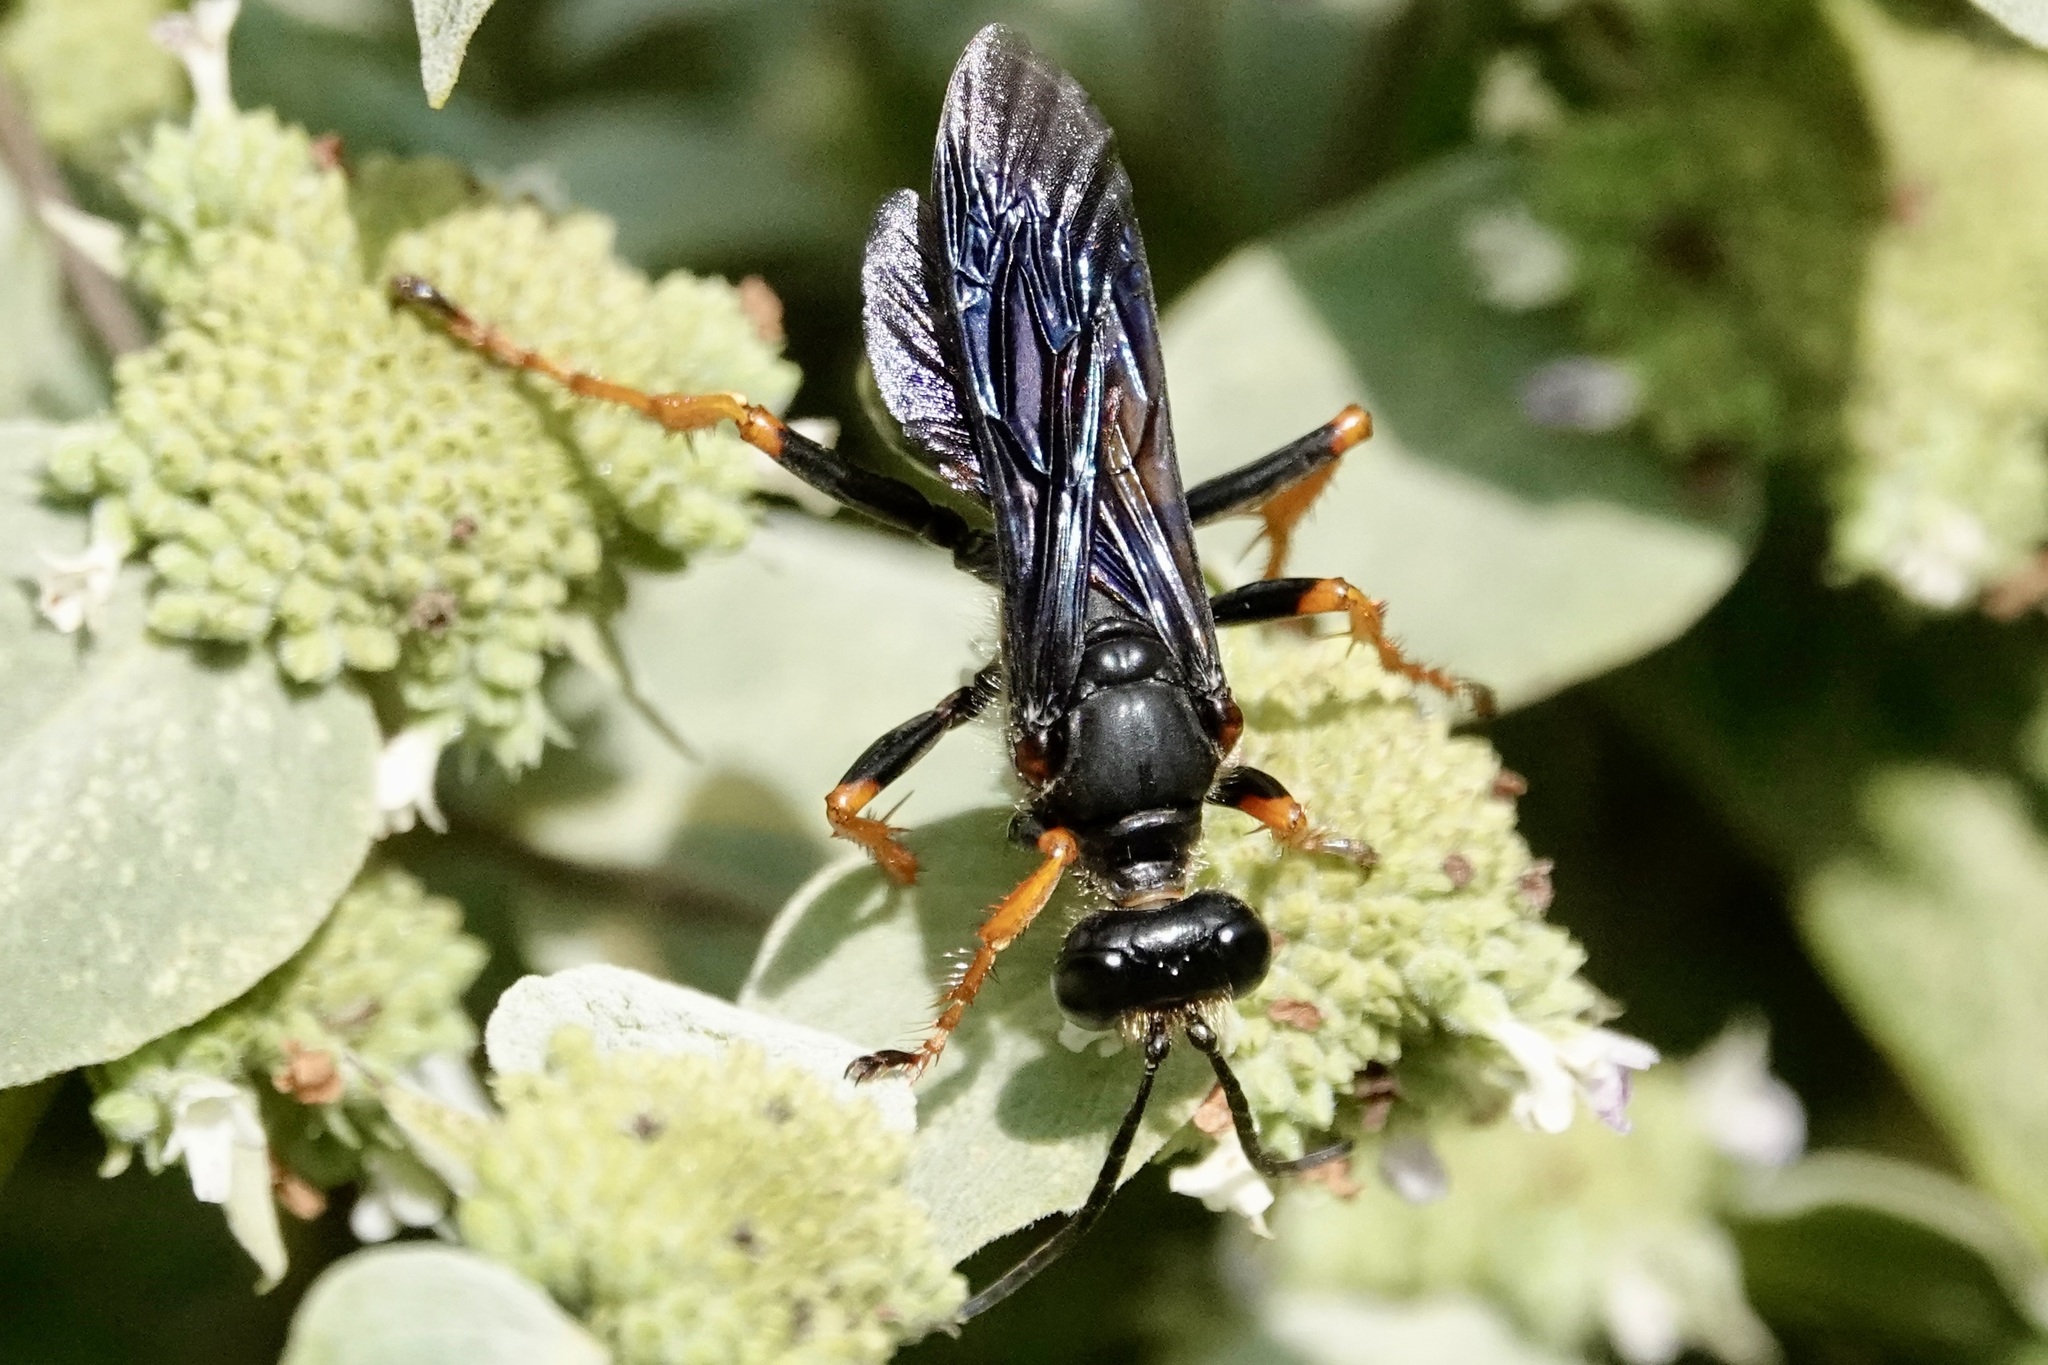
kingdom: Animalia
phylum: Arthropoda
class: Insecta
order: Hymenoptera
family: Sphecidae
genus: Sphex
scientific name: Sphex nudus
